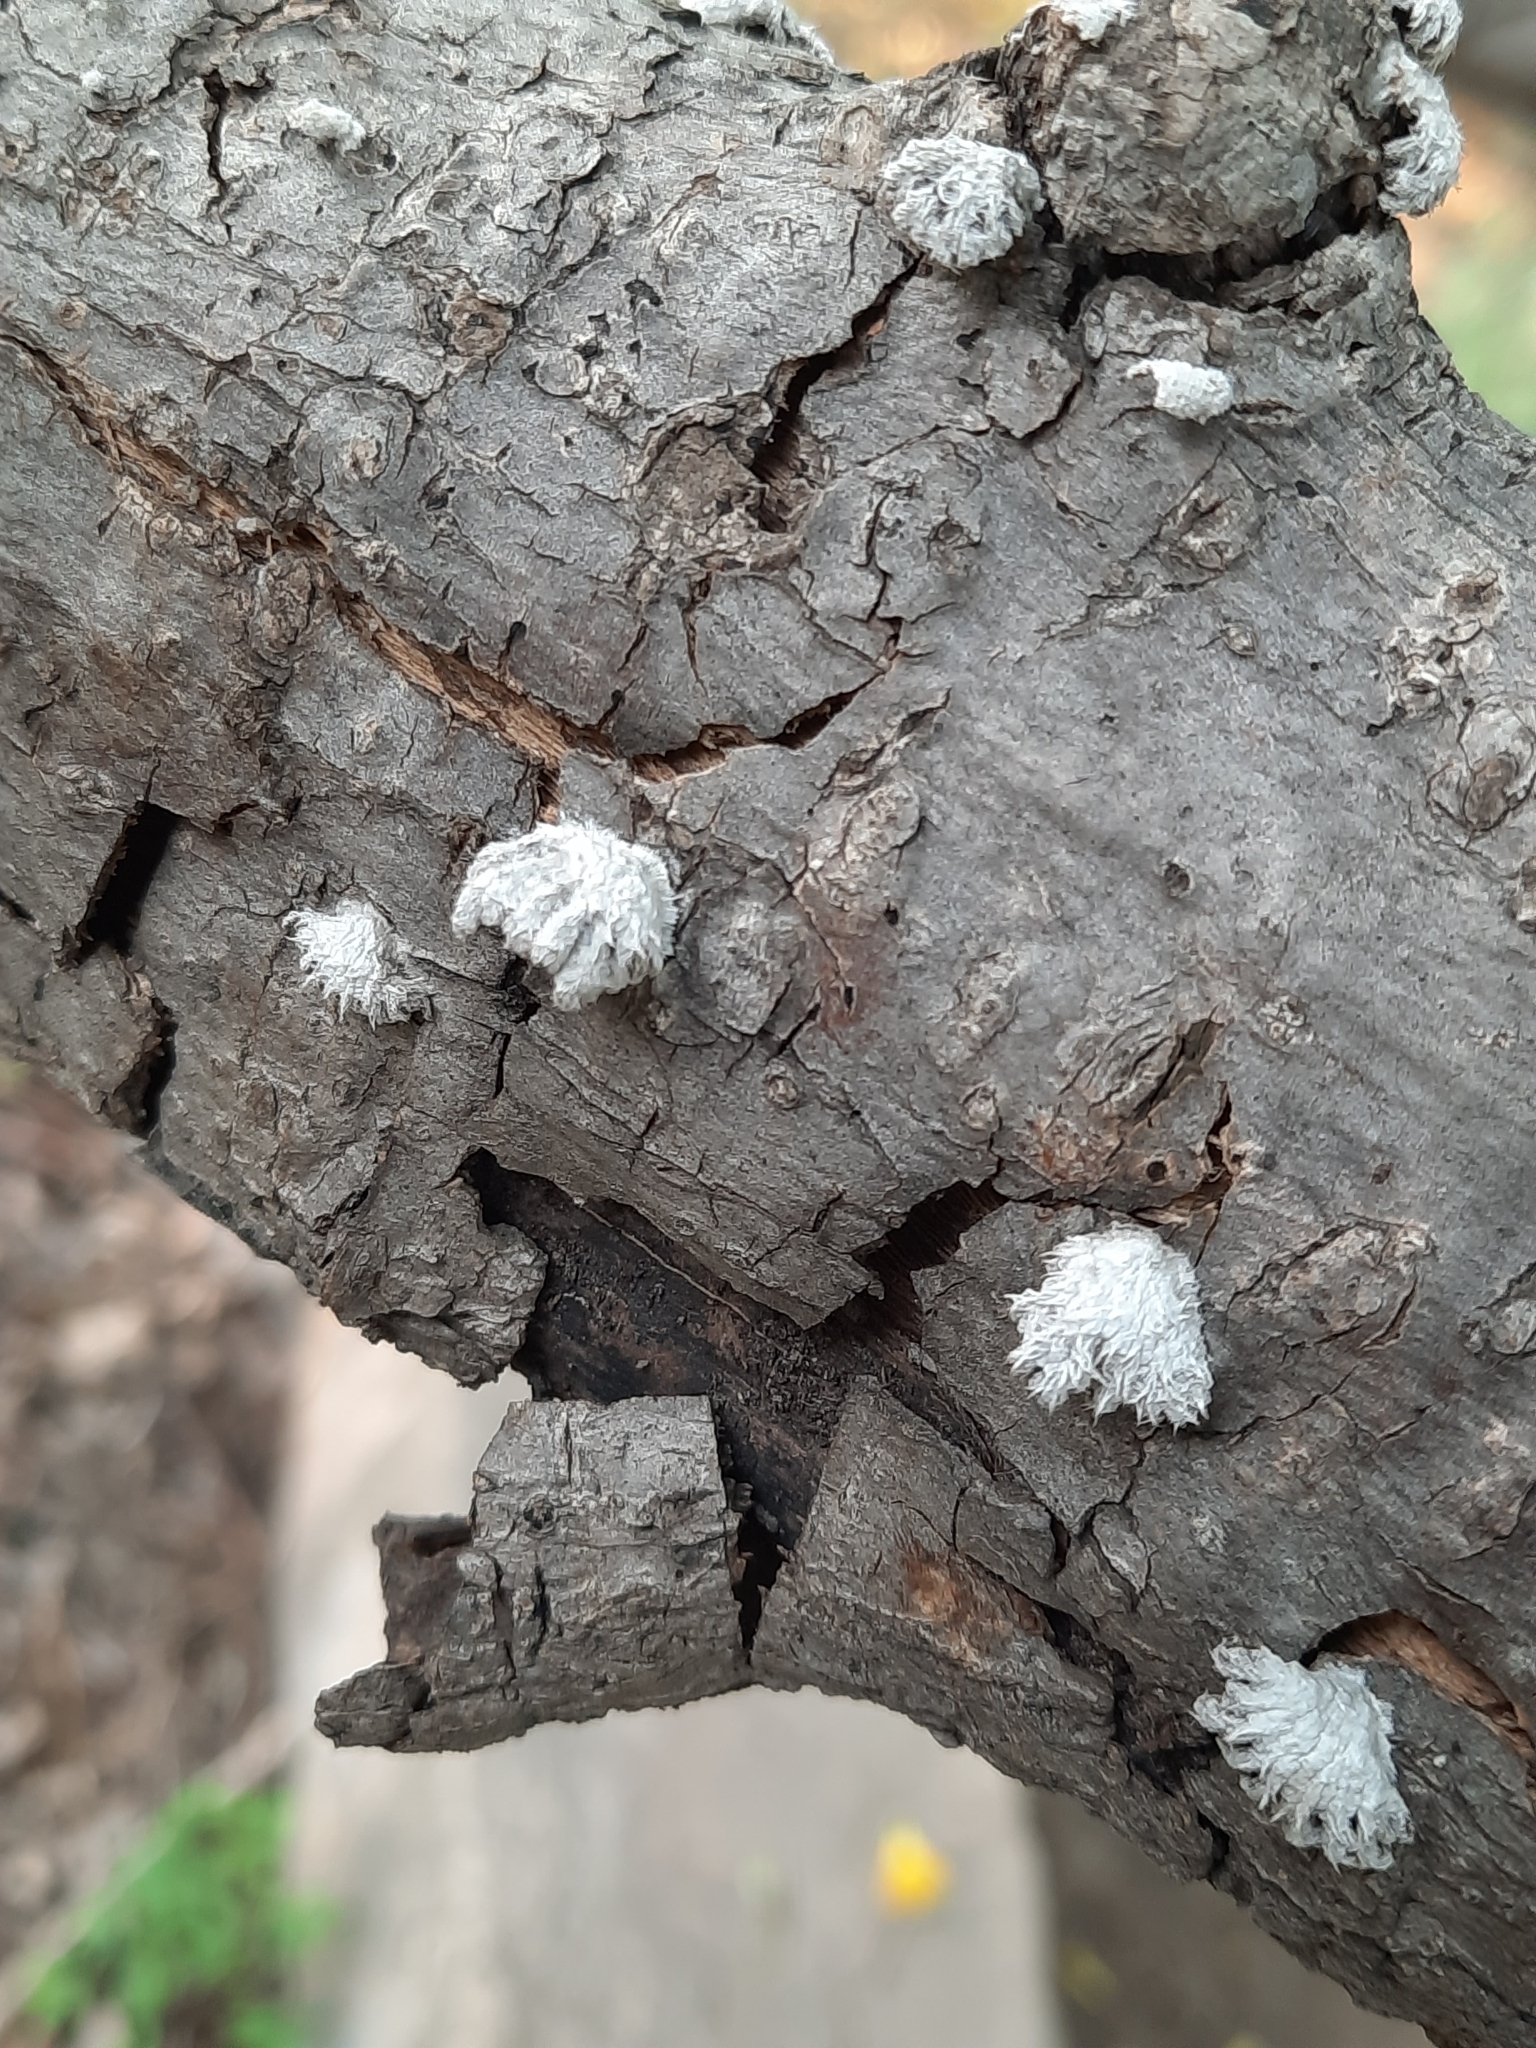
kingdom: Fungi
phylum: Basidiomycota
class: Agaricomycetes
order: Agaricales
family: Schizophyllaceae
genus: Schizophyllum
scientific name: Schizophyllum commune
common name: Common porecrust
